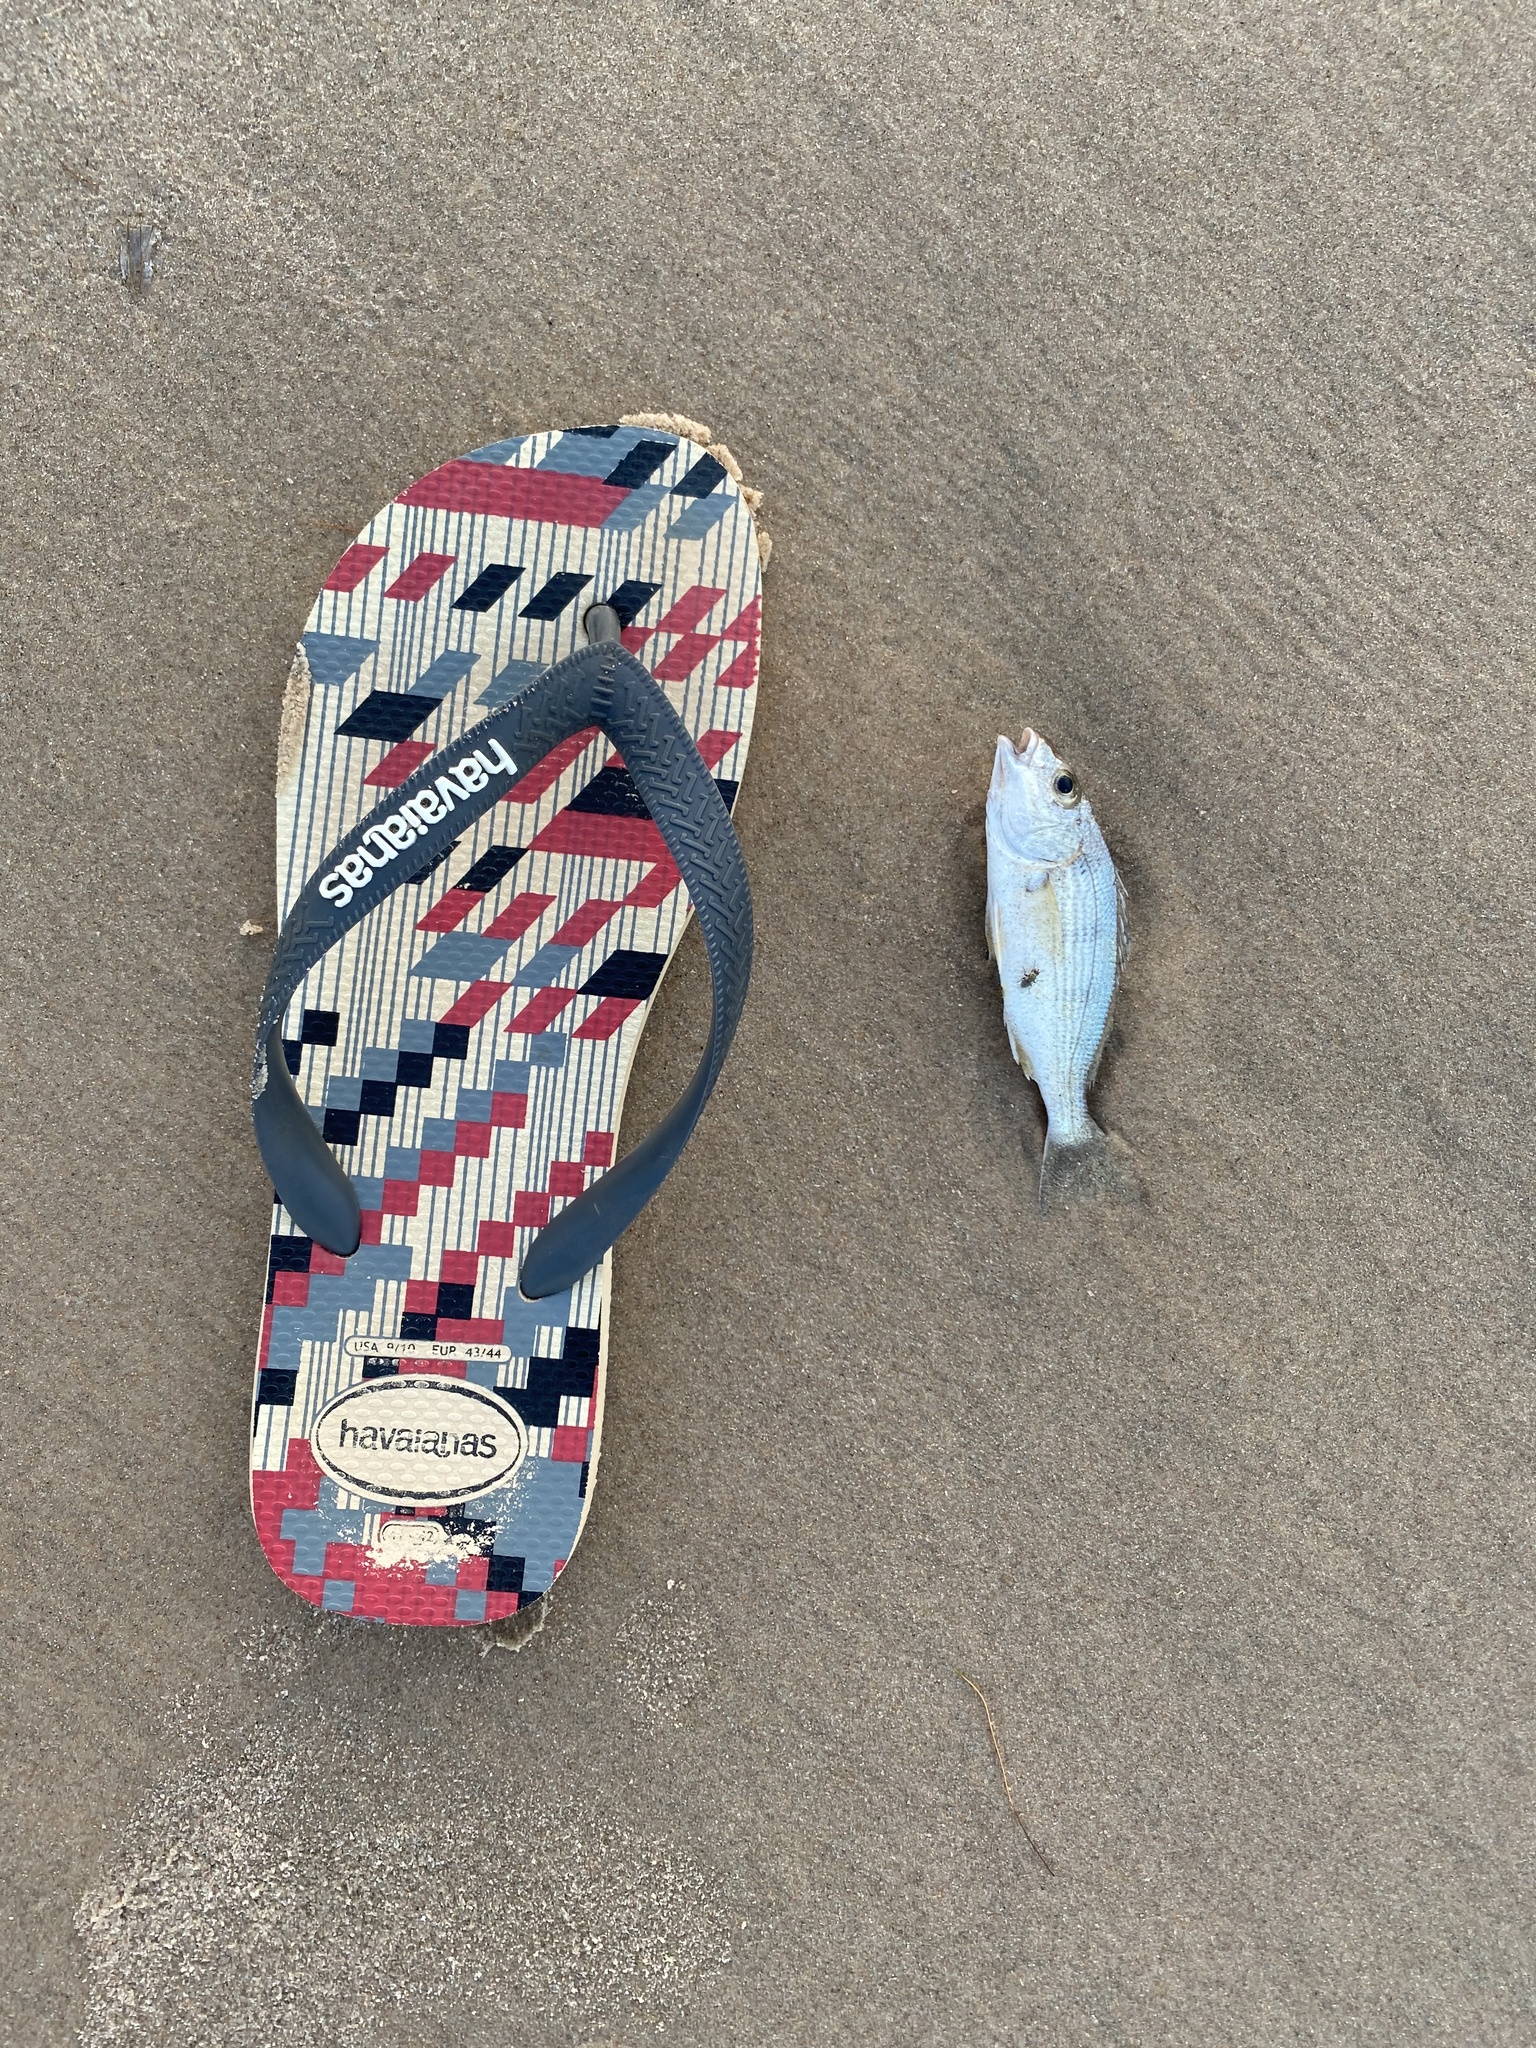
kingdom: Animalia
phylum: Chordata
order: Perciformes
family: Haemulidae
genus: Haemulopsis
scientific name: Haemulopsis corvinaeformis
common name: Roughneck grunt
